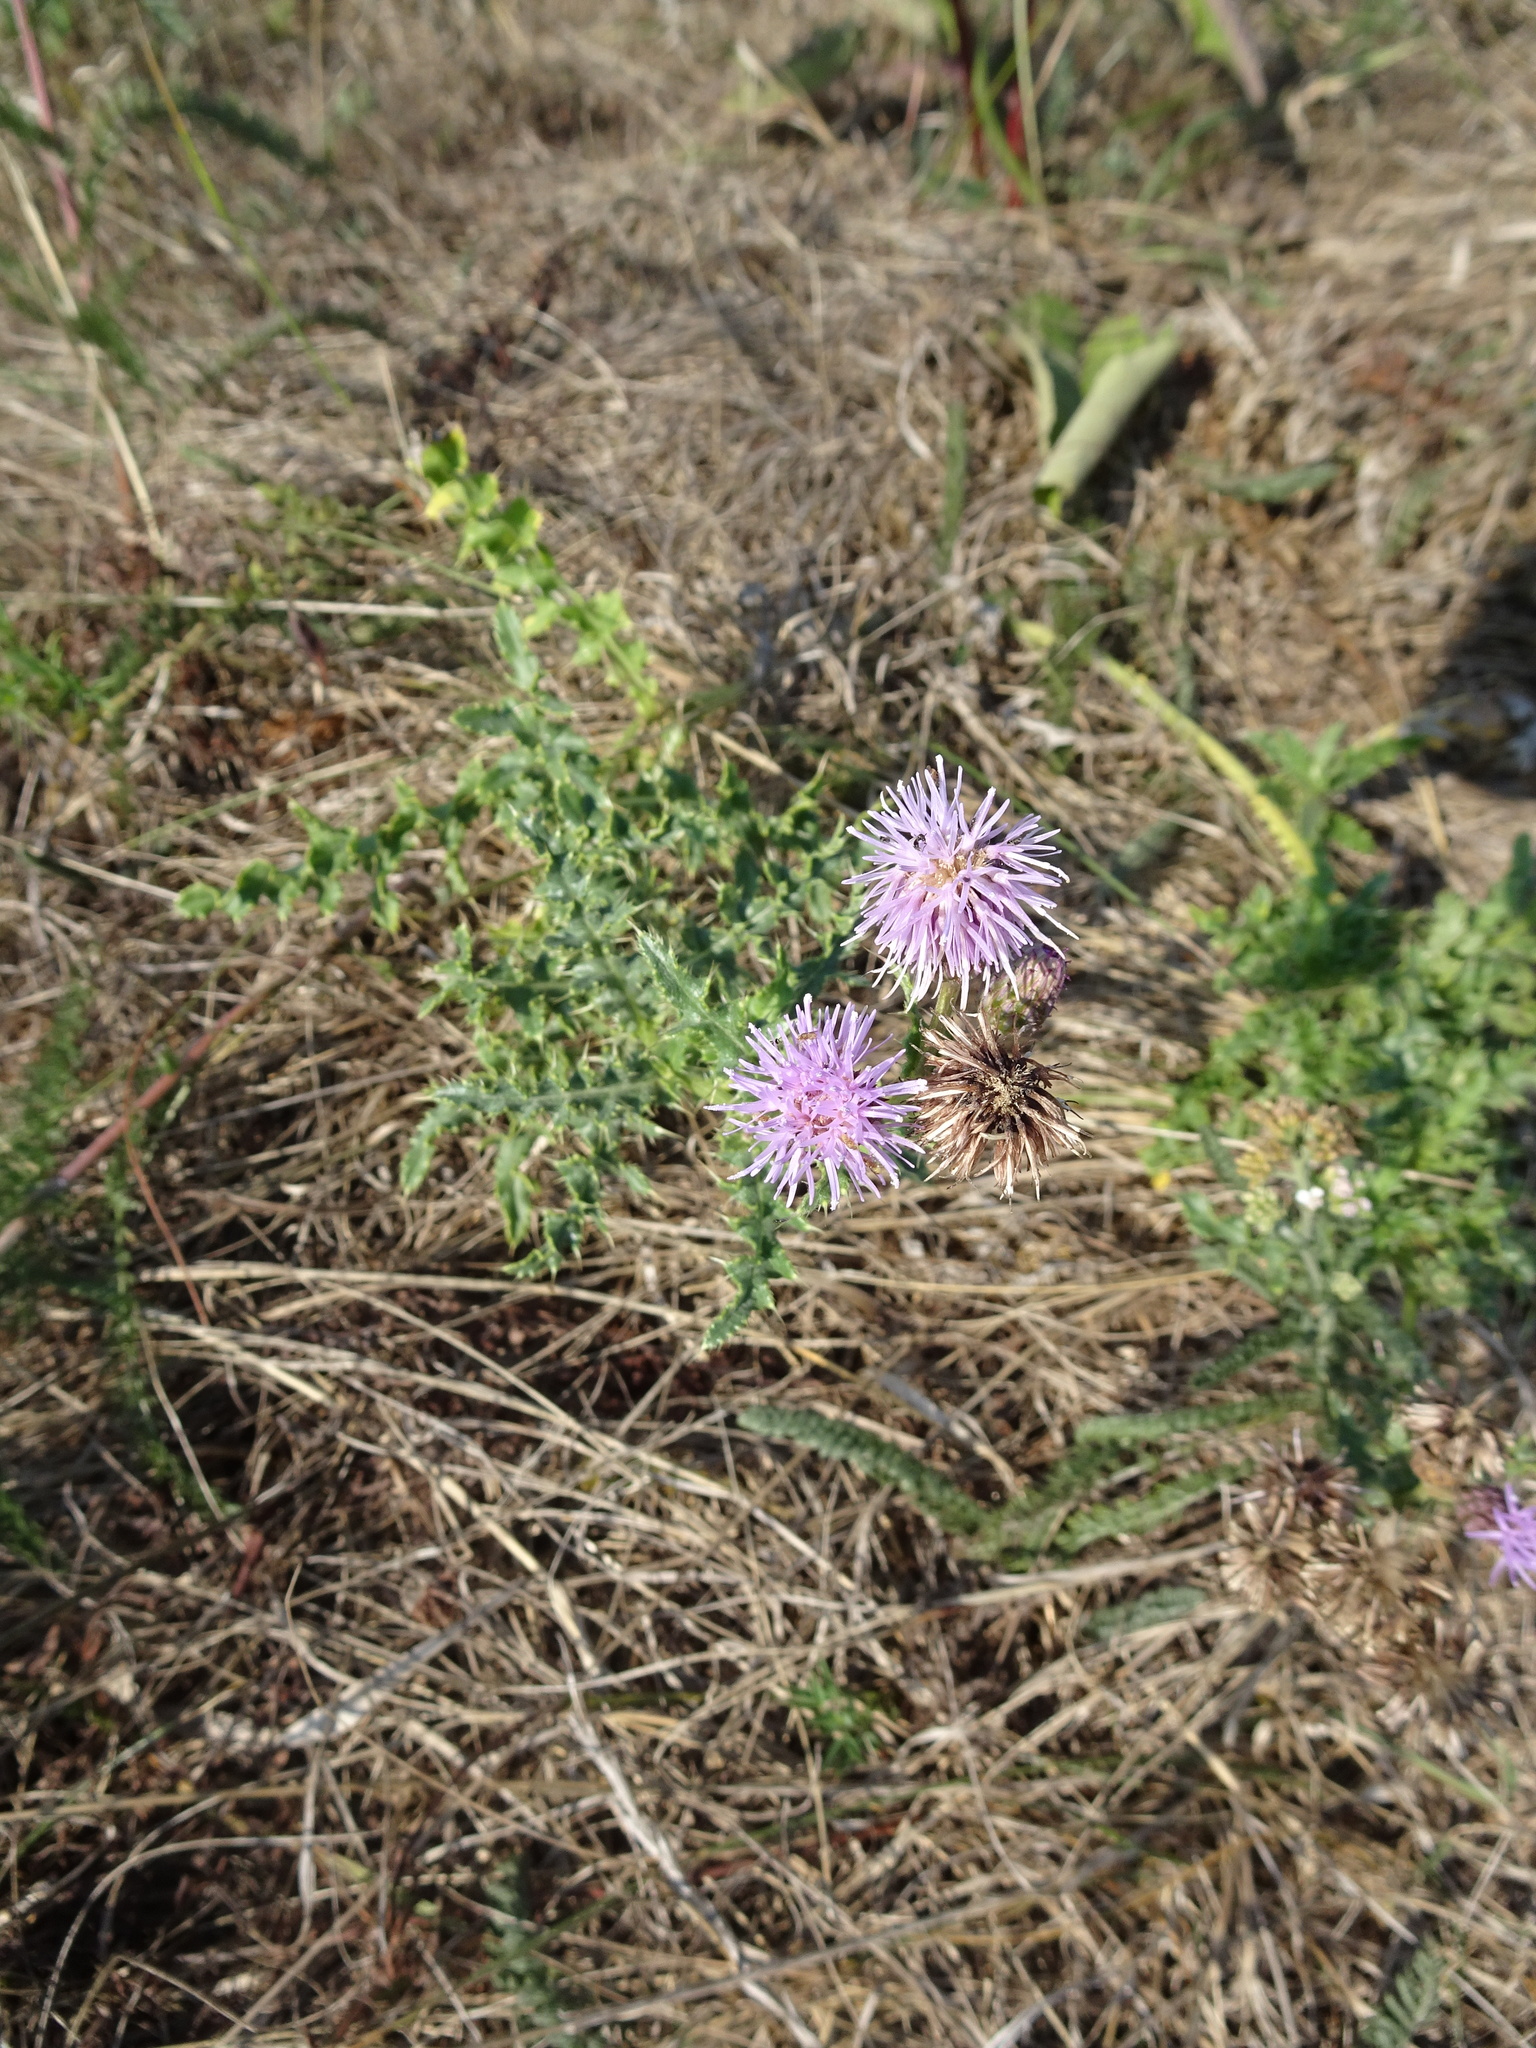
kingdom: Plantae
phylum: Tracheophyta
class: Magnoliopsida
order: Asterales
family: Asteraceae
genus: Cirsium
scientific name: Cirsium arvense
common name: Creeping thistle
